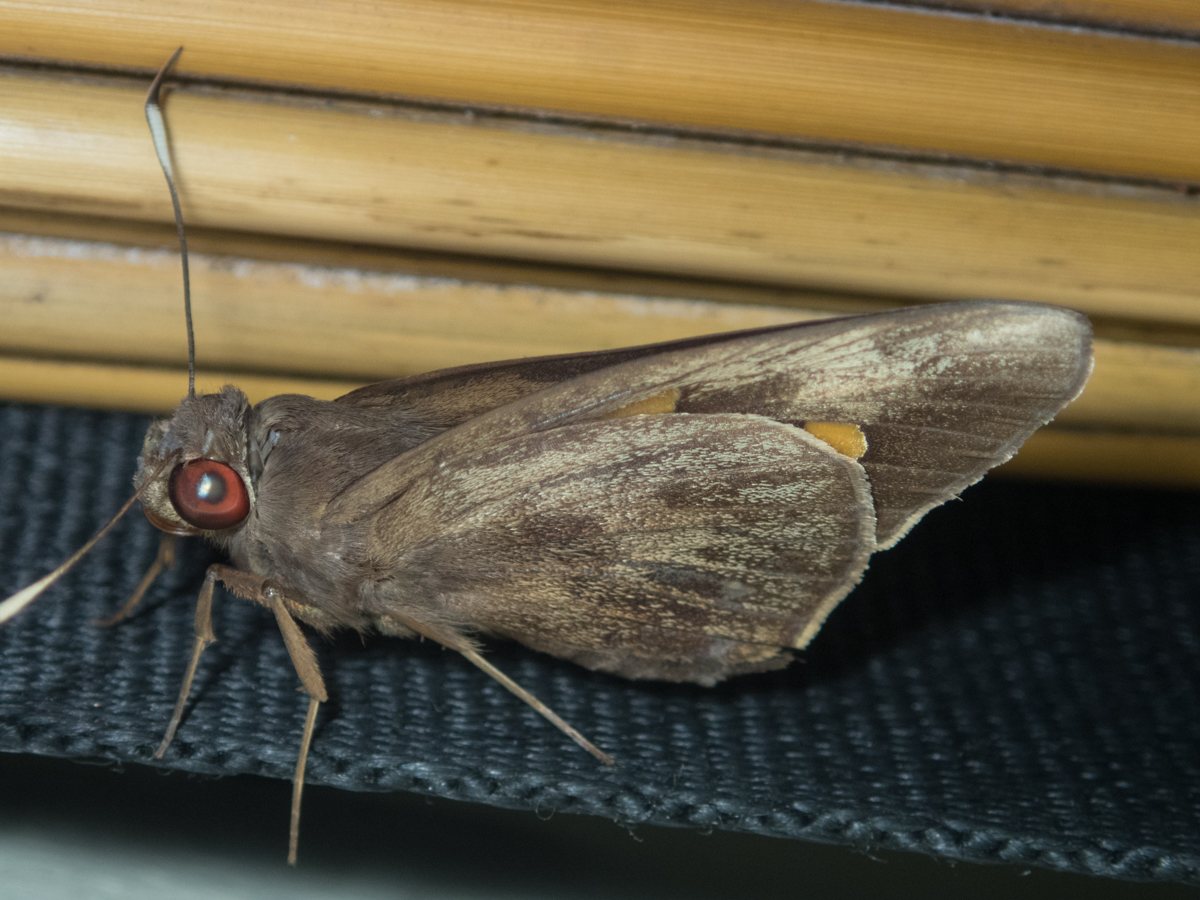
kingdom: Animalia
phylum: Arthropoda
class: Insecta
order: Lepidoptera
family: Hesperiidae
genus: Erionota
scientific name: Erionota acroleucus
